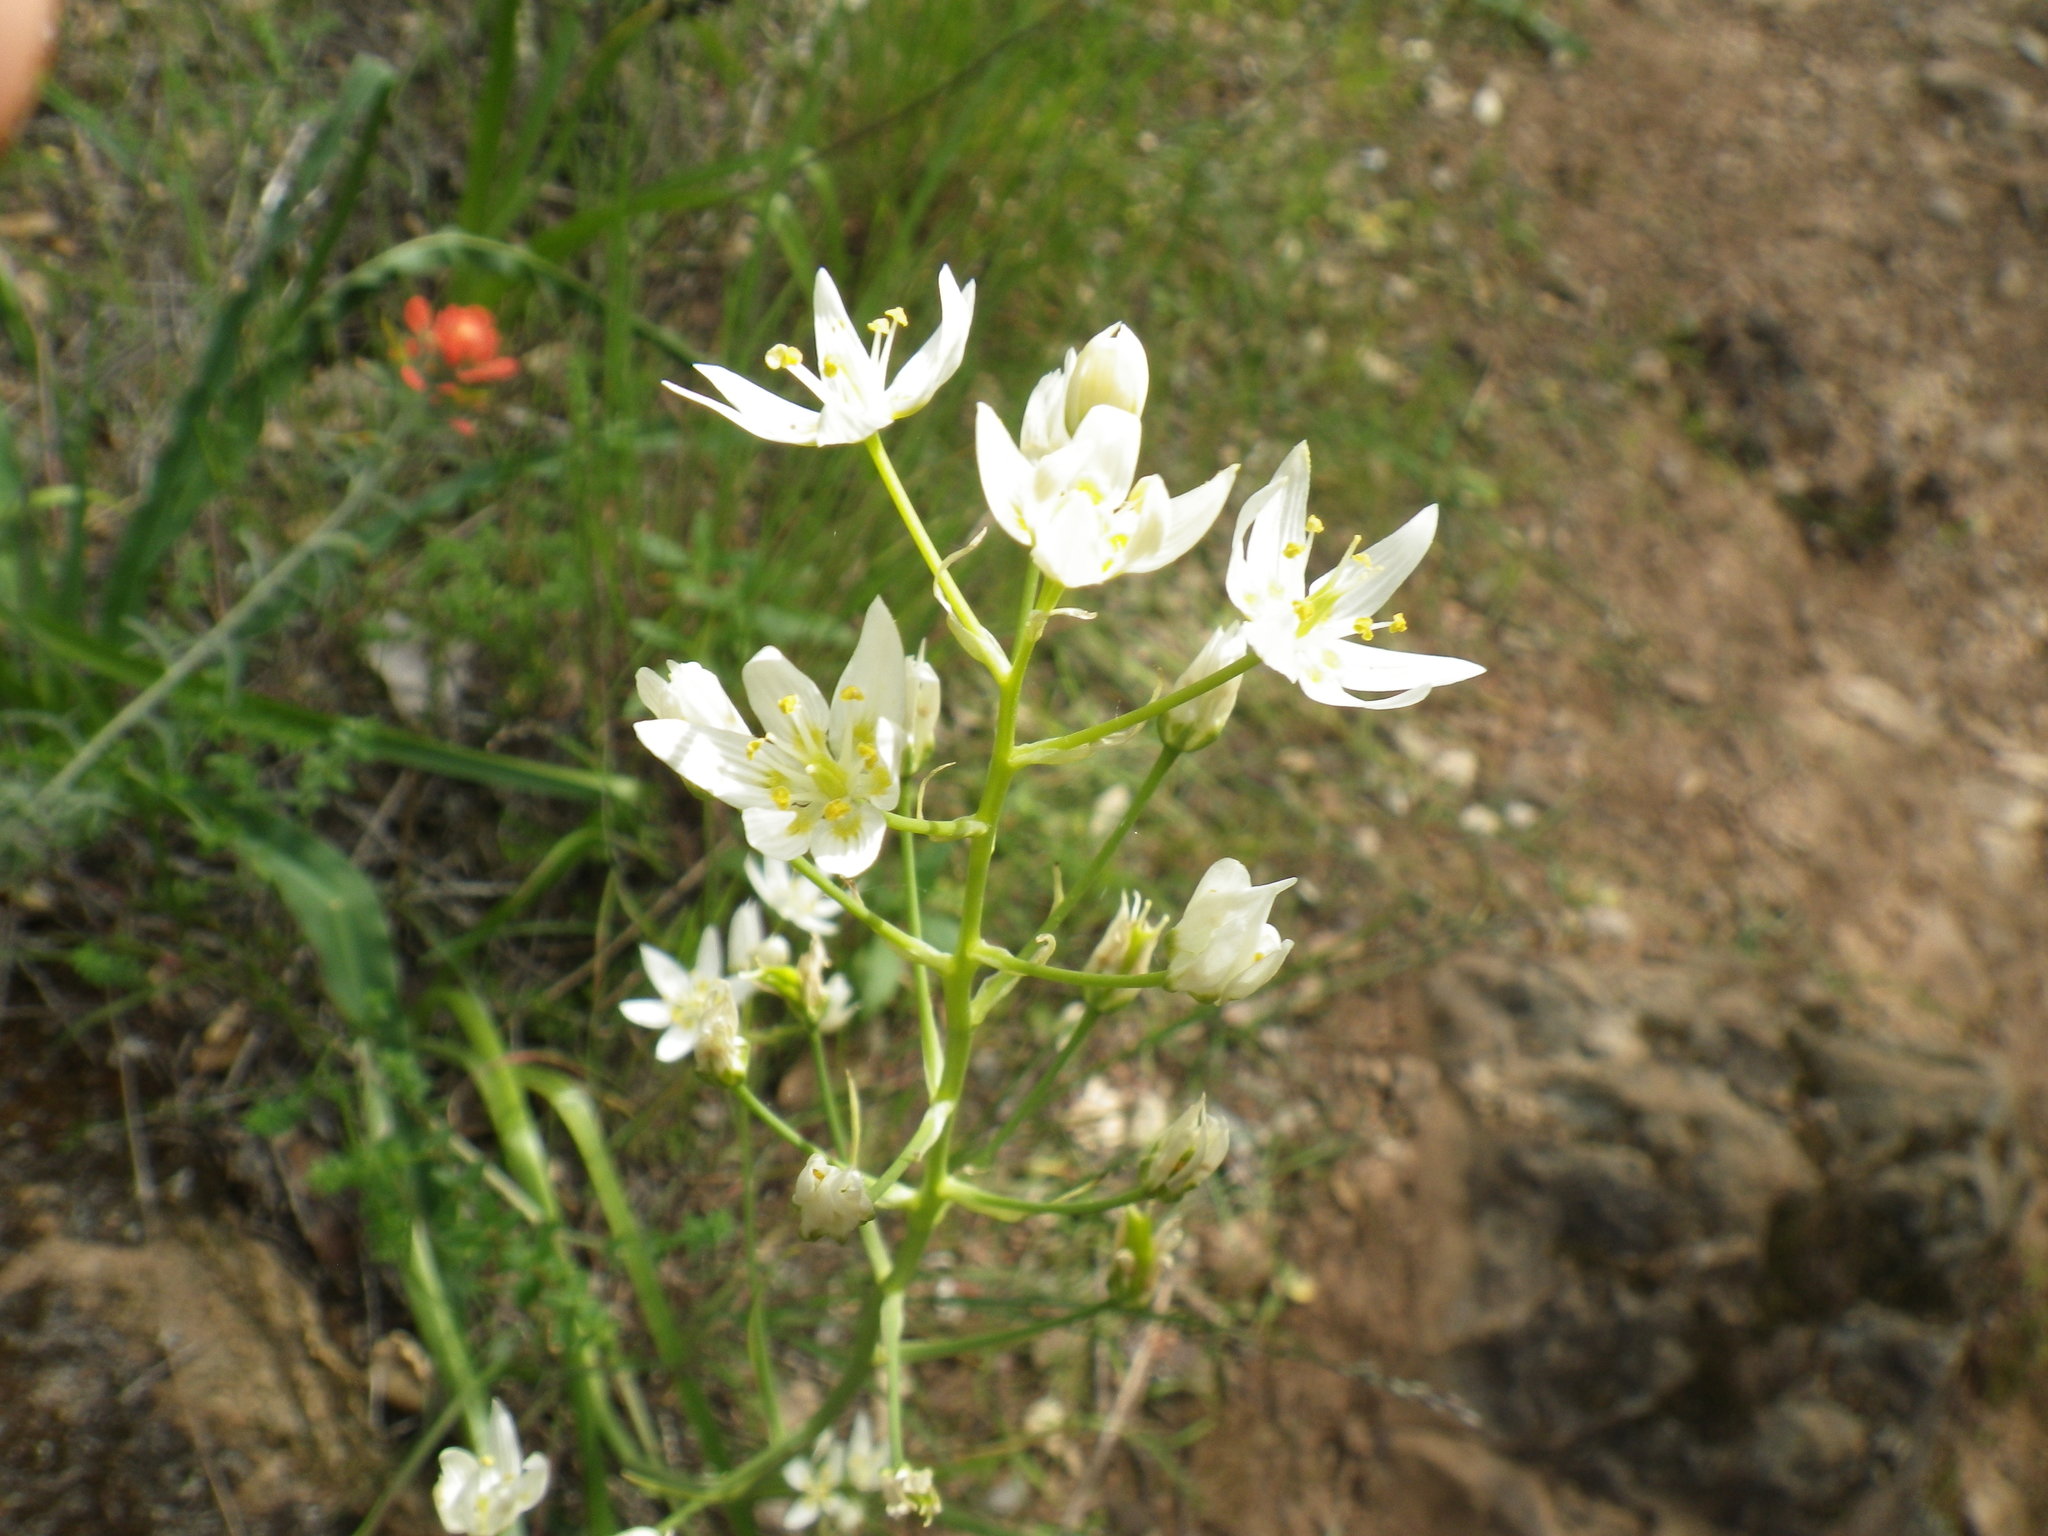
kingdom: Plantae
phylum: Tracheophyta
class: Liliopsida
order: Liliales
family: Melanthiaceae
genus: Toxicoscordion
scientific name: Toxicoscordion fremontii
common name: Fremont's death camas
